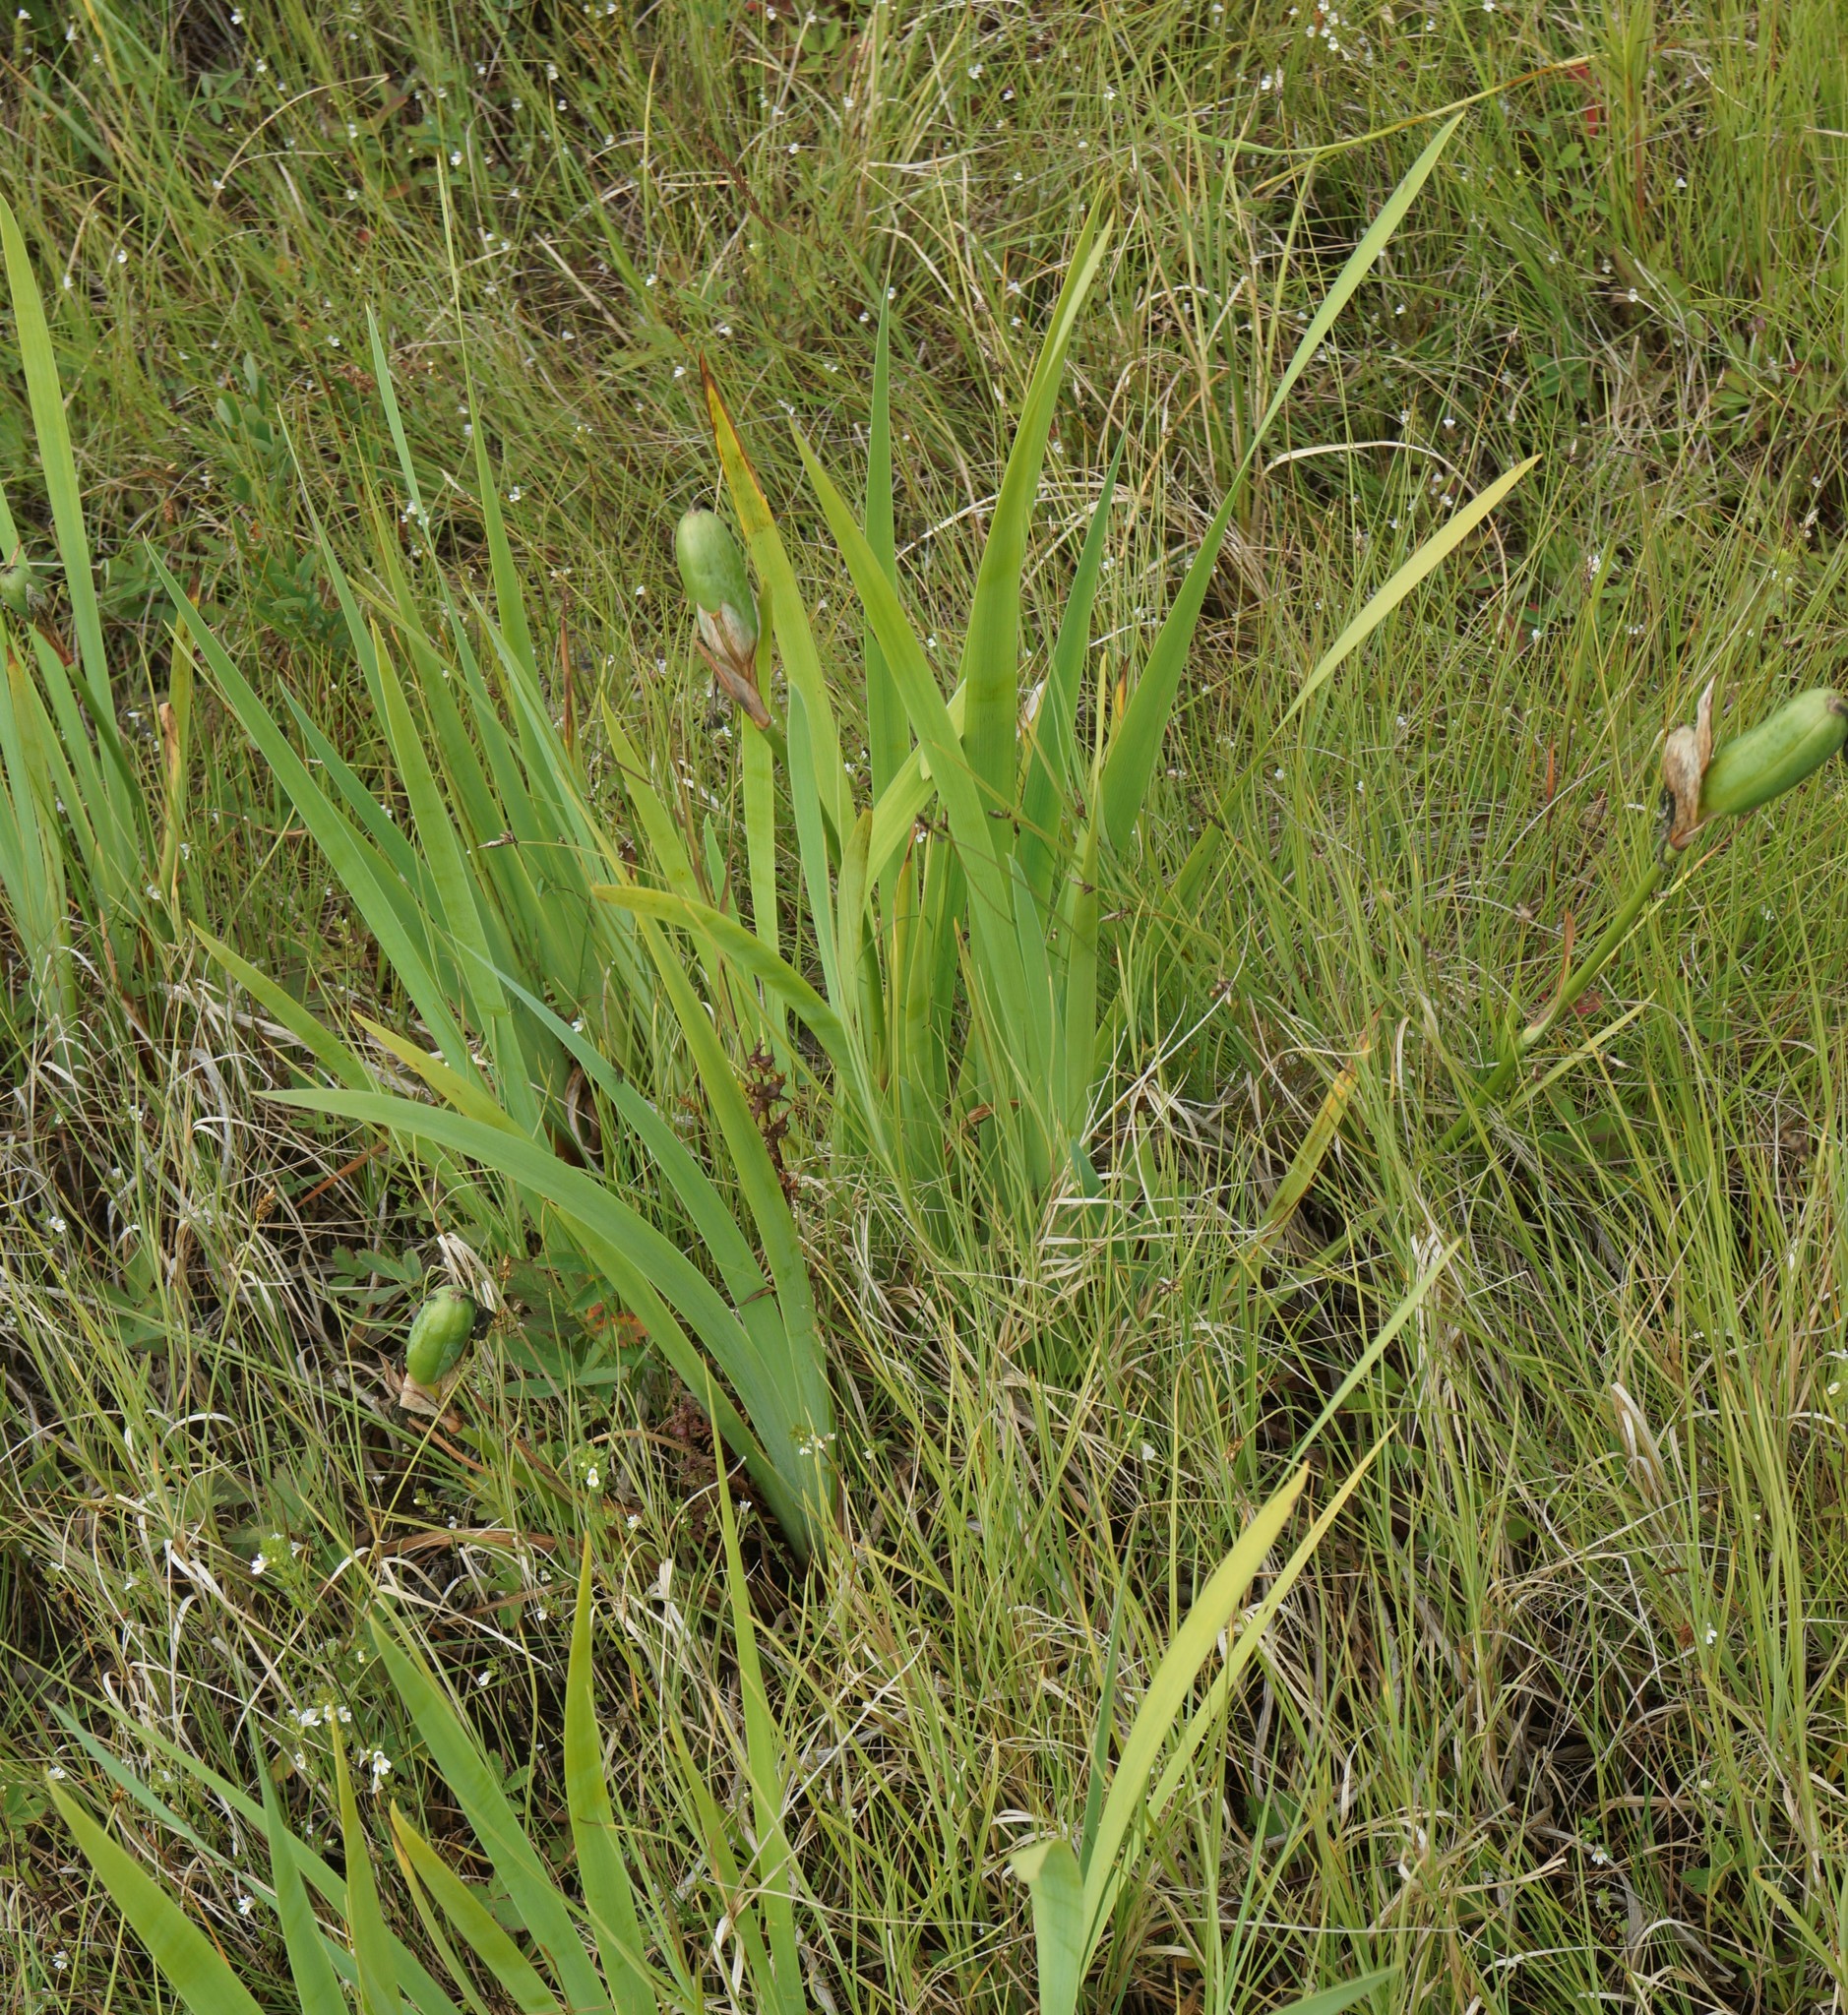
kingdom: Plantae
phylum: Tracheophyta
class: Liliopsida
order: Asparagales
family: Iridaceae
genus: Iris
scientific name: Iris laevigata
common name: Japanese iris
